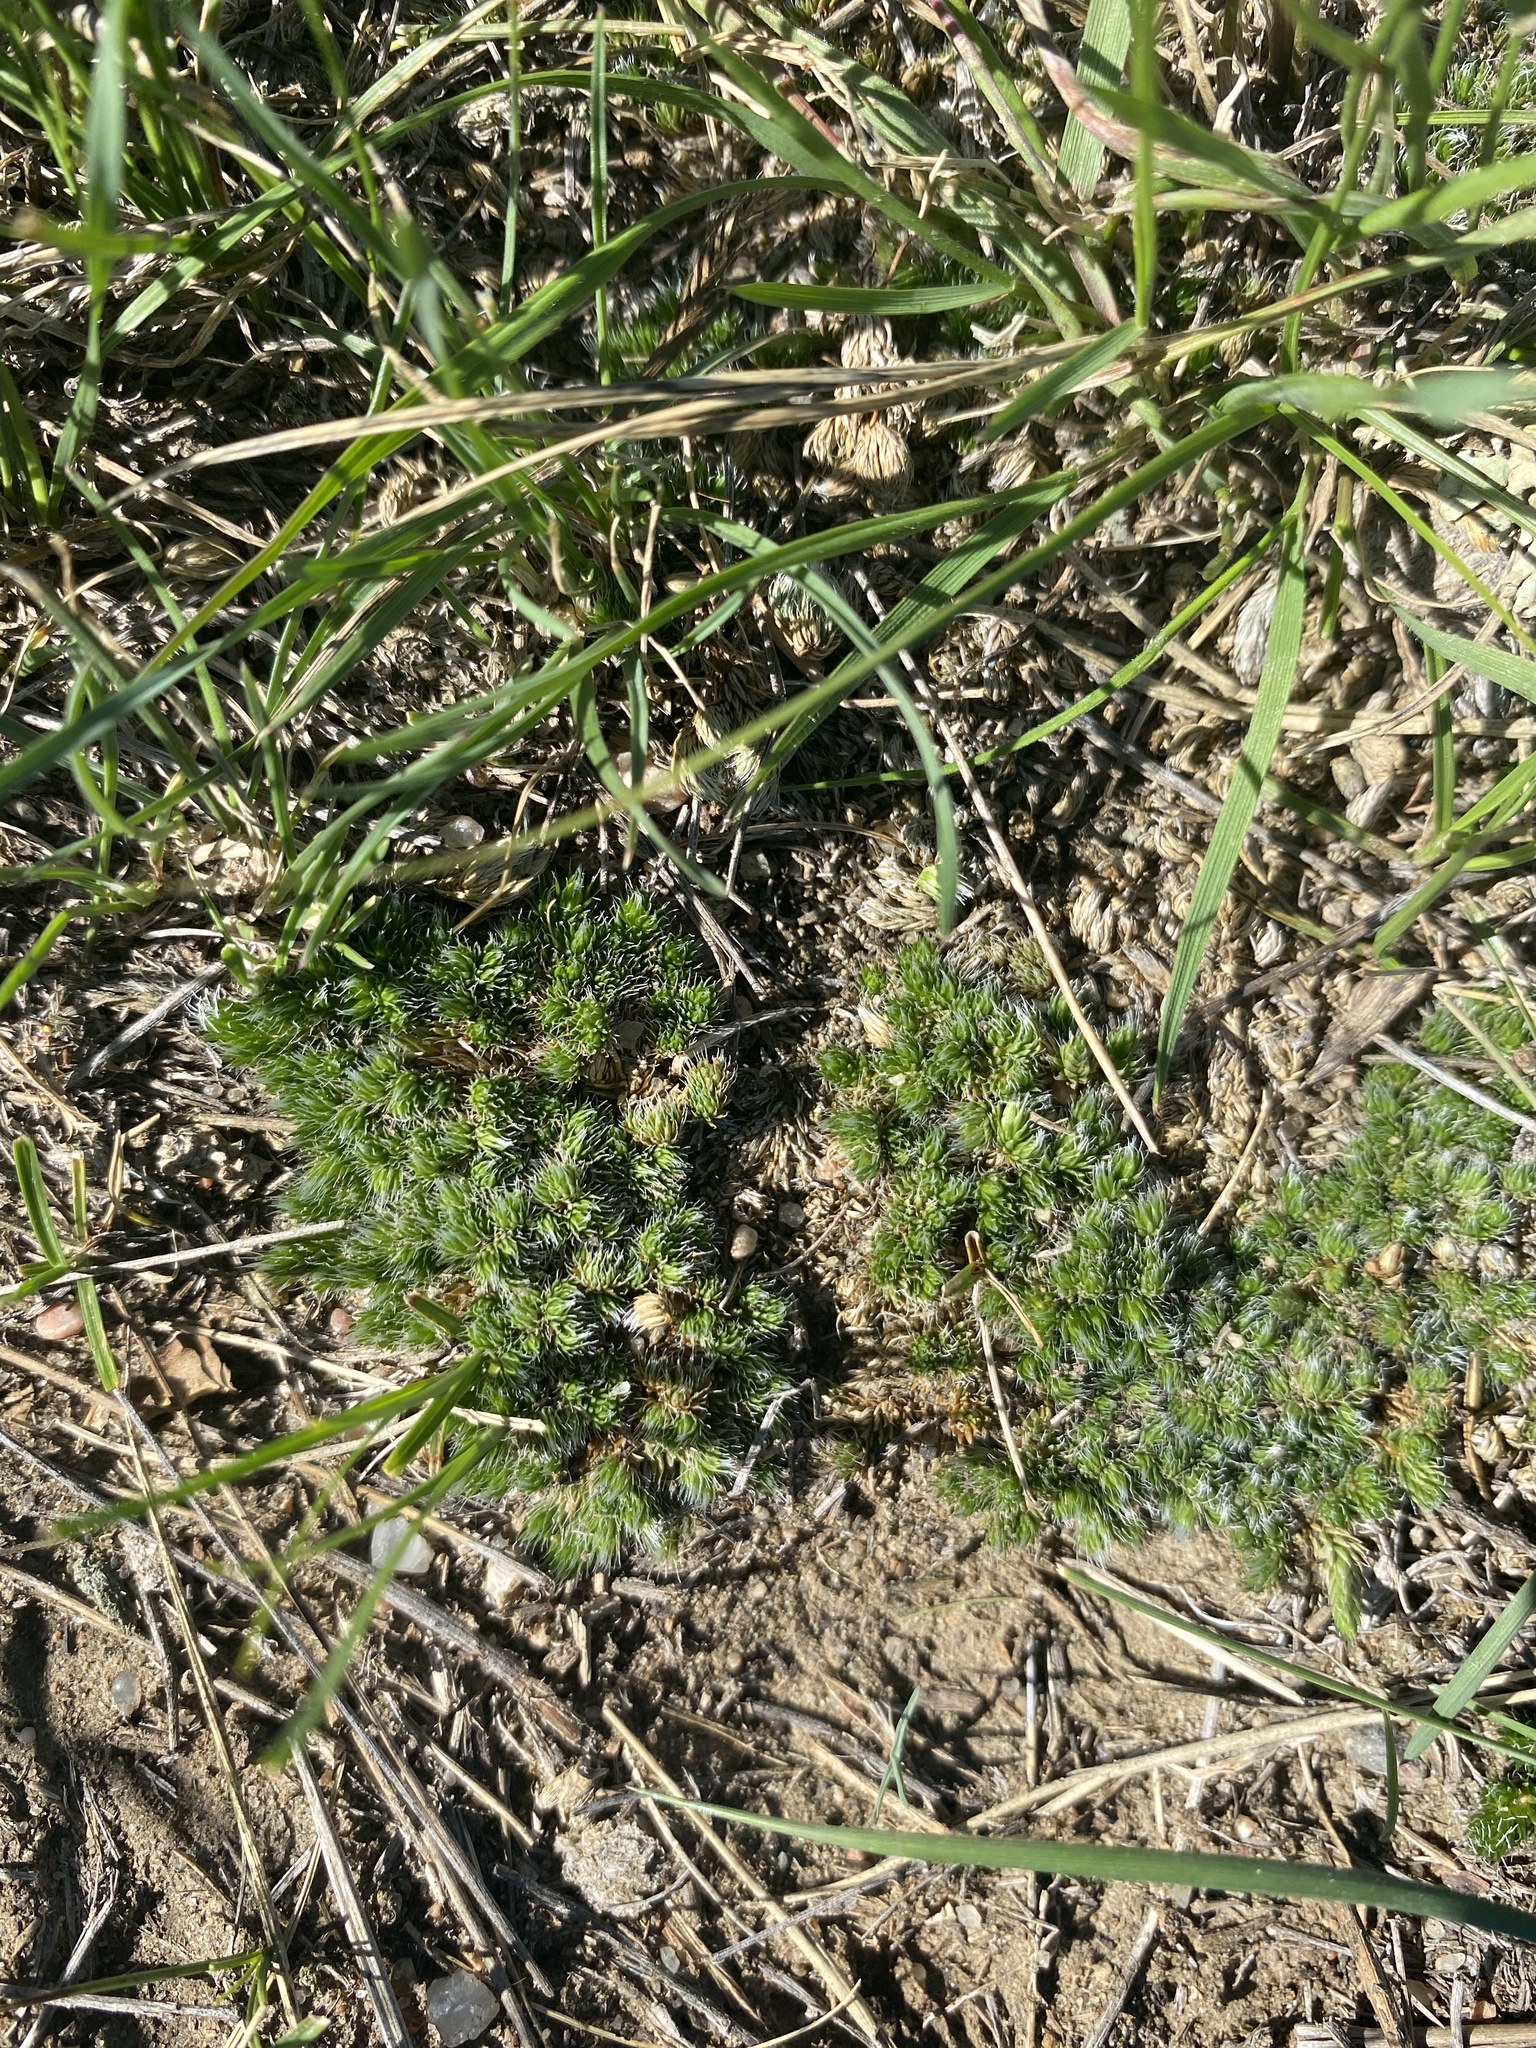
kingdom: Plantae
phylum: Tracheophyta
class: Lycopodiopsida
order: Selaginellales
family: Selaginellaceae
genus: Selaginella
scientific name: Selaginella densa
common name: Mountain spike-moss
